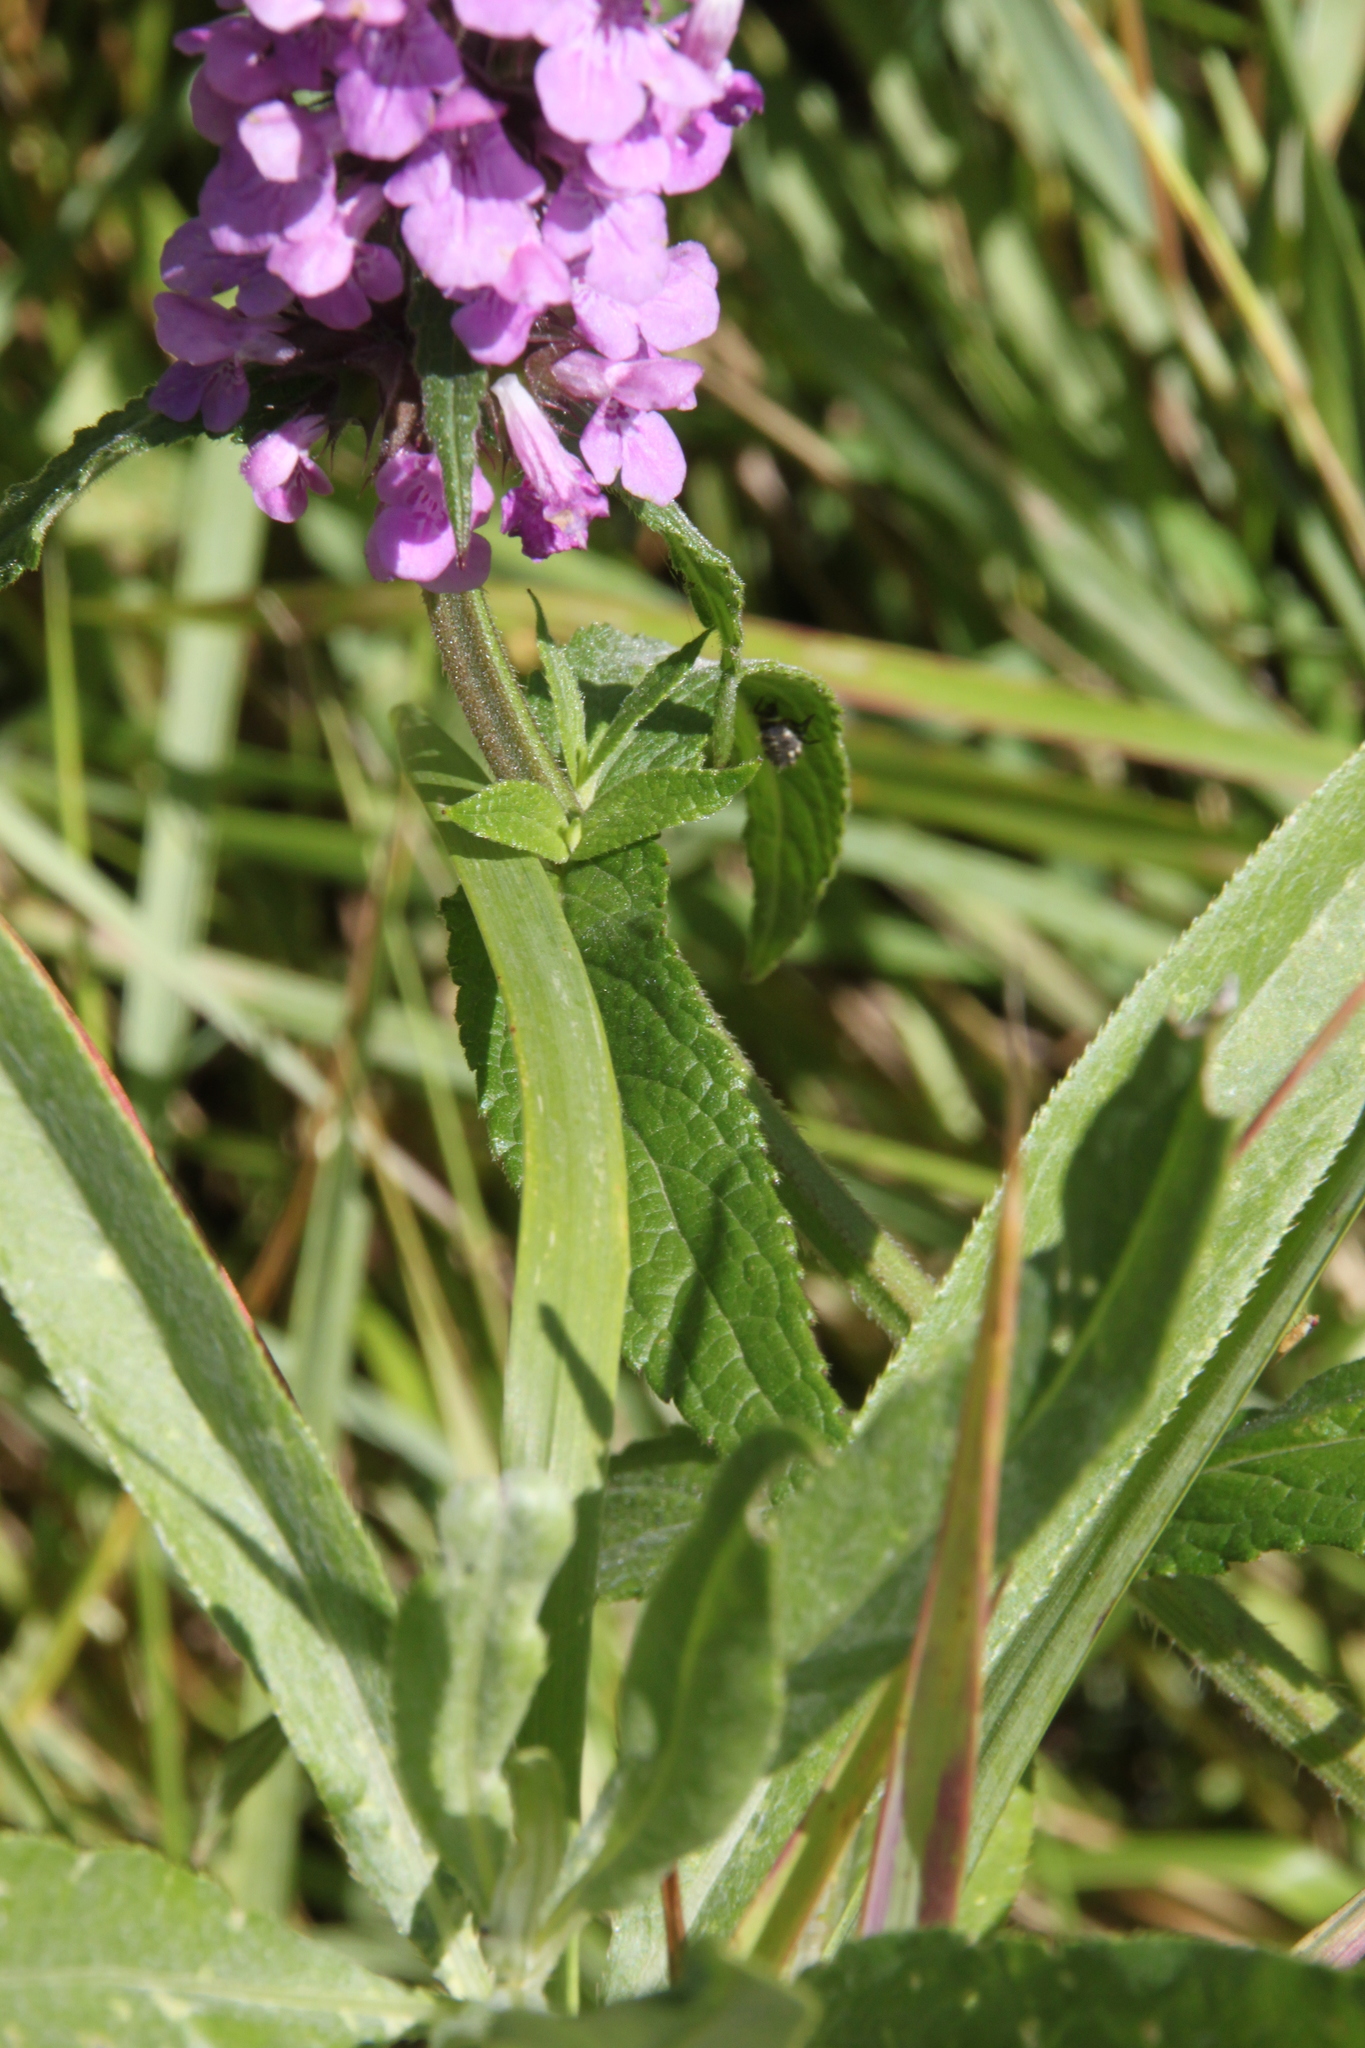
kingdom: Plantae
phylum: Tracheophyta
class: Magnoliopsida
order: Lamiales
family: Lamiaceae
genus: Stachys
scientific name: Stachys palustris
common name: Marsh woundwort
